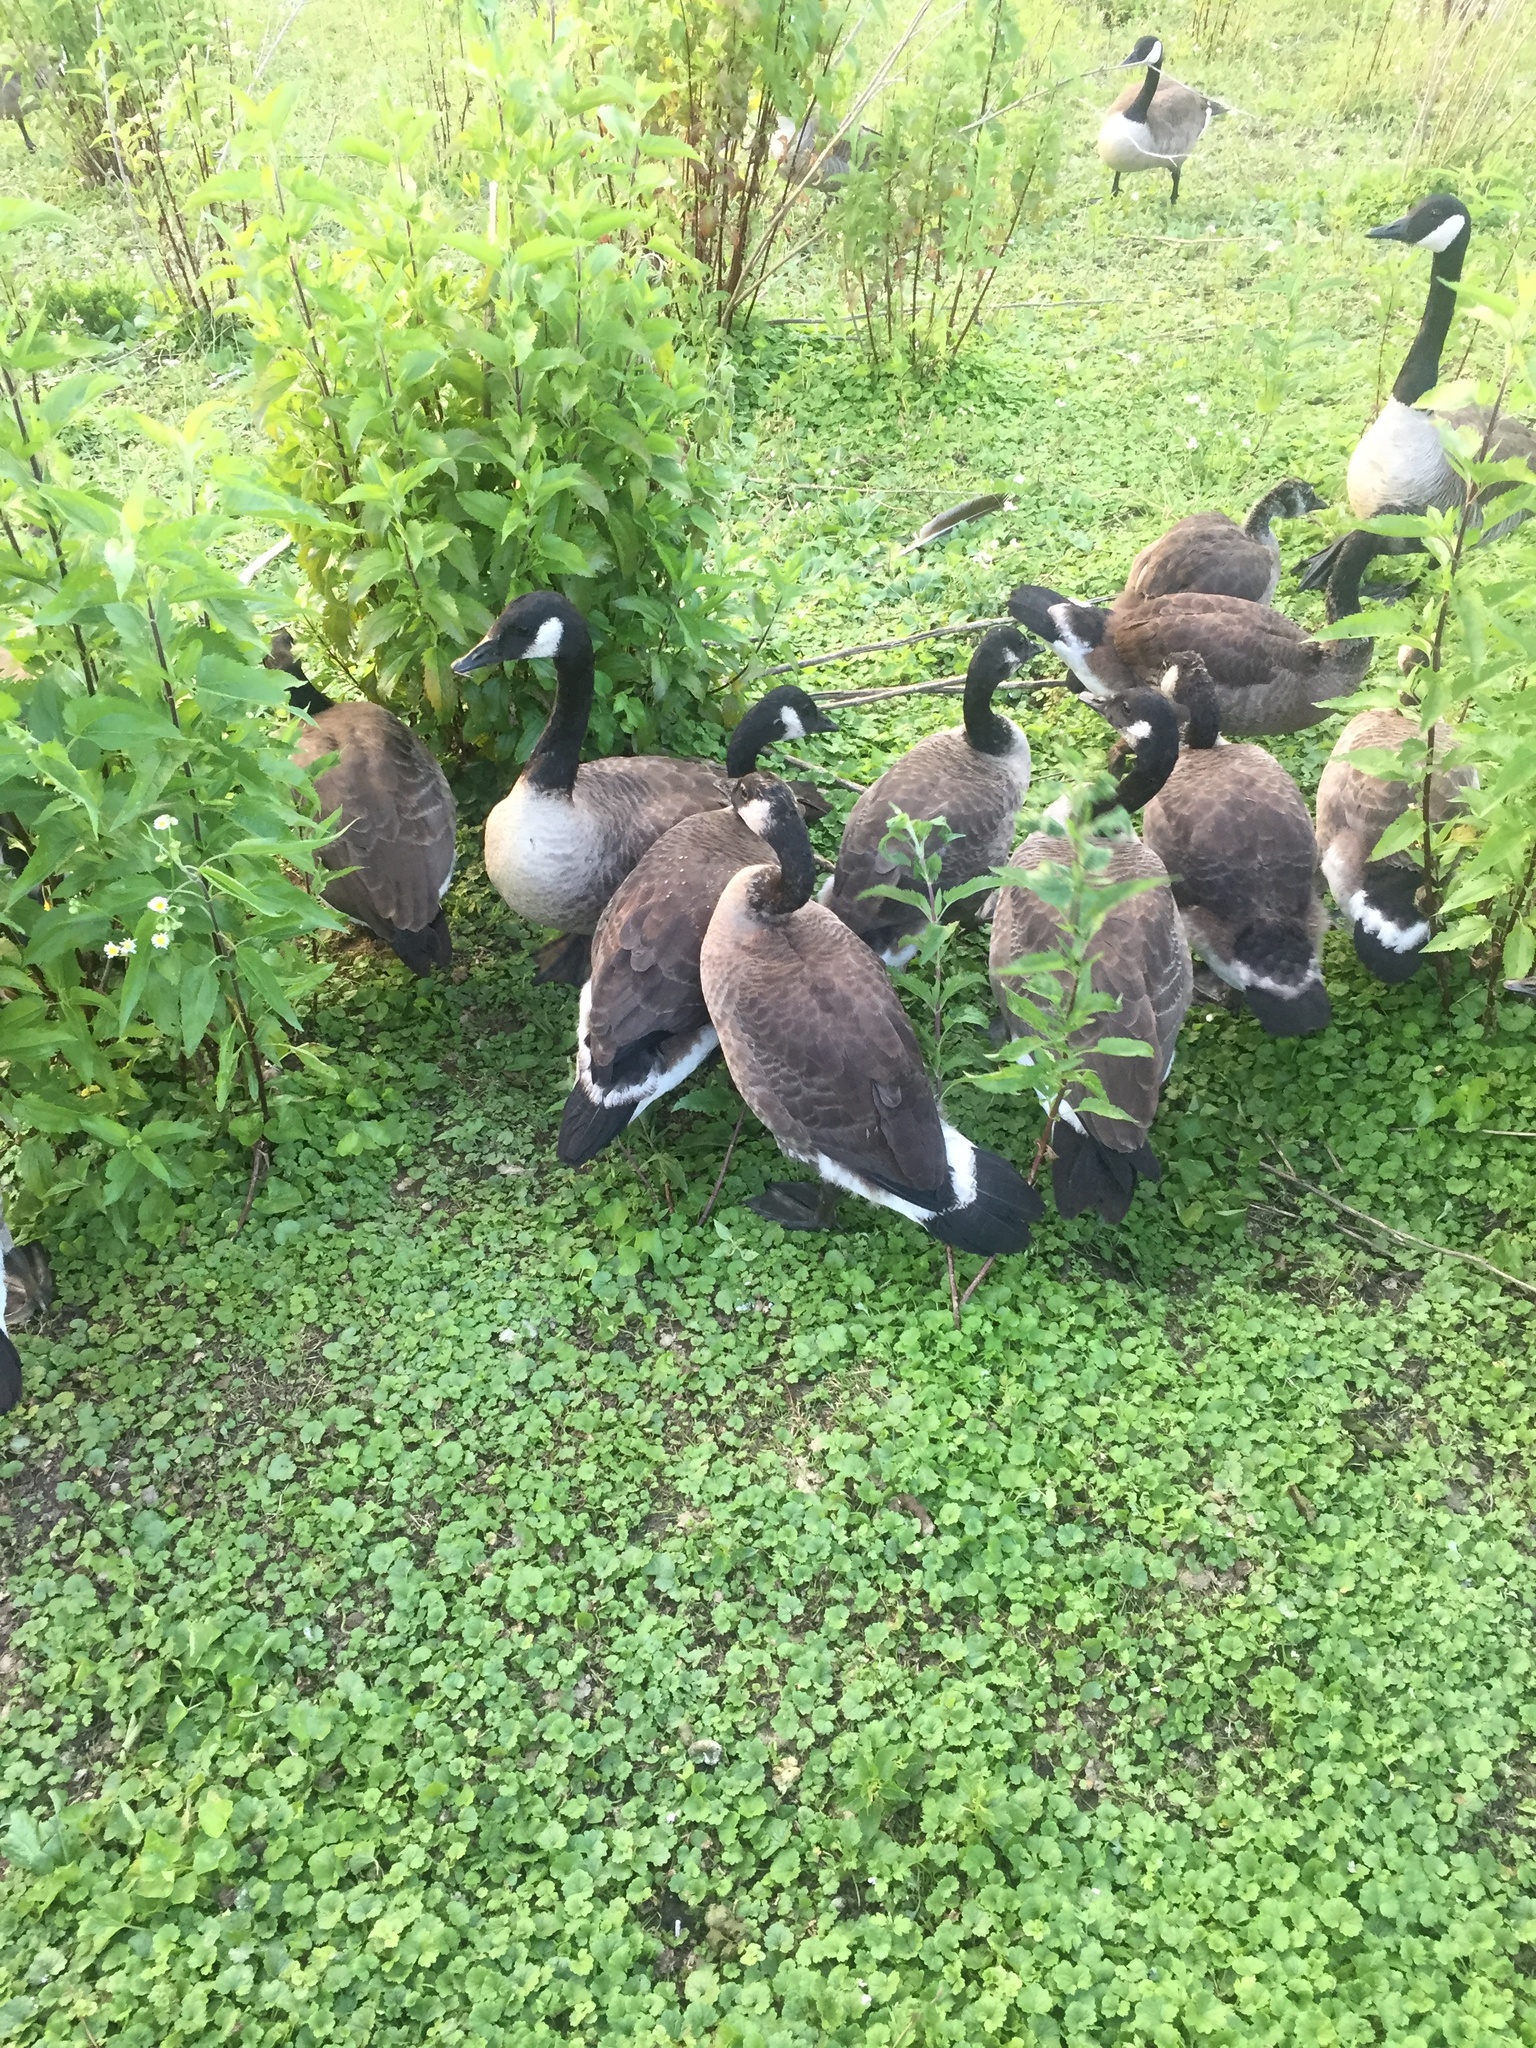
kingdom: Animalia
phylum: Chordata
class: Aves
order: Anseriformes
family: Anatidae
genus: Branta
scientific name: Branta canadensis
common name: Canada goose
